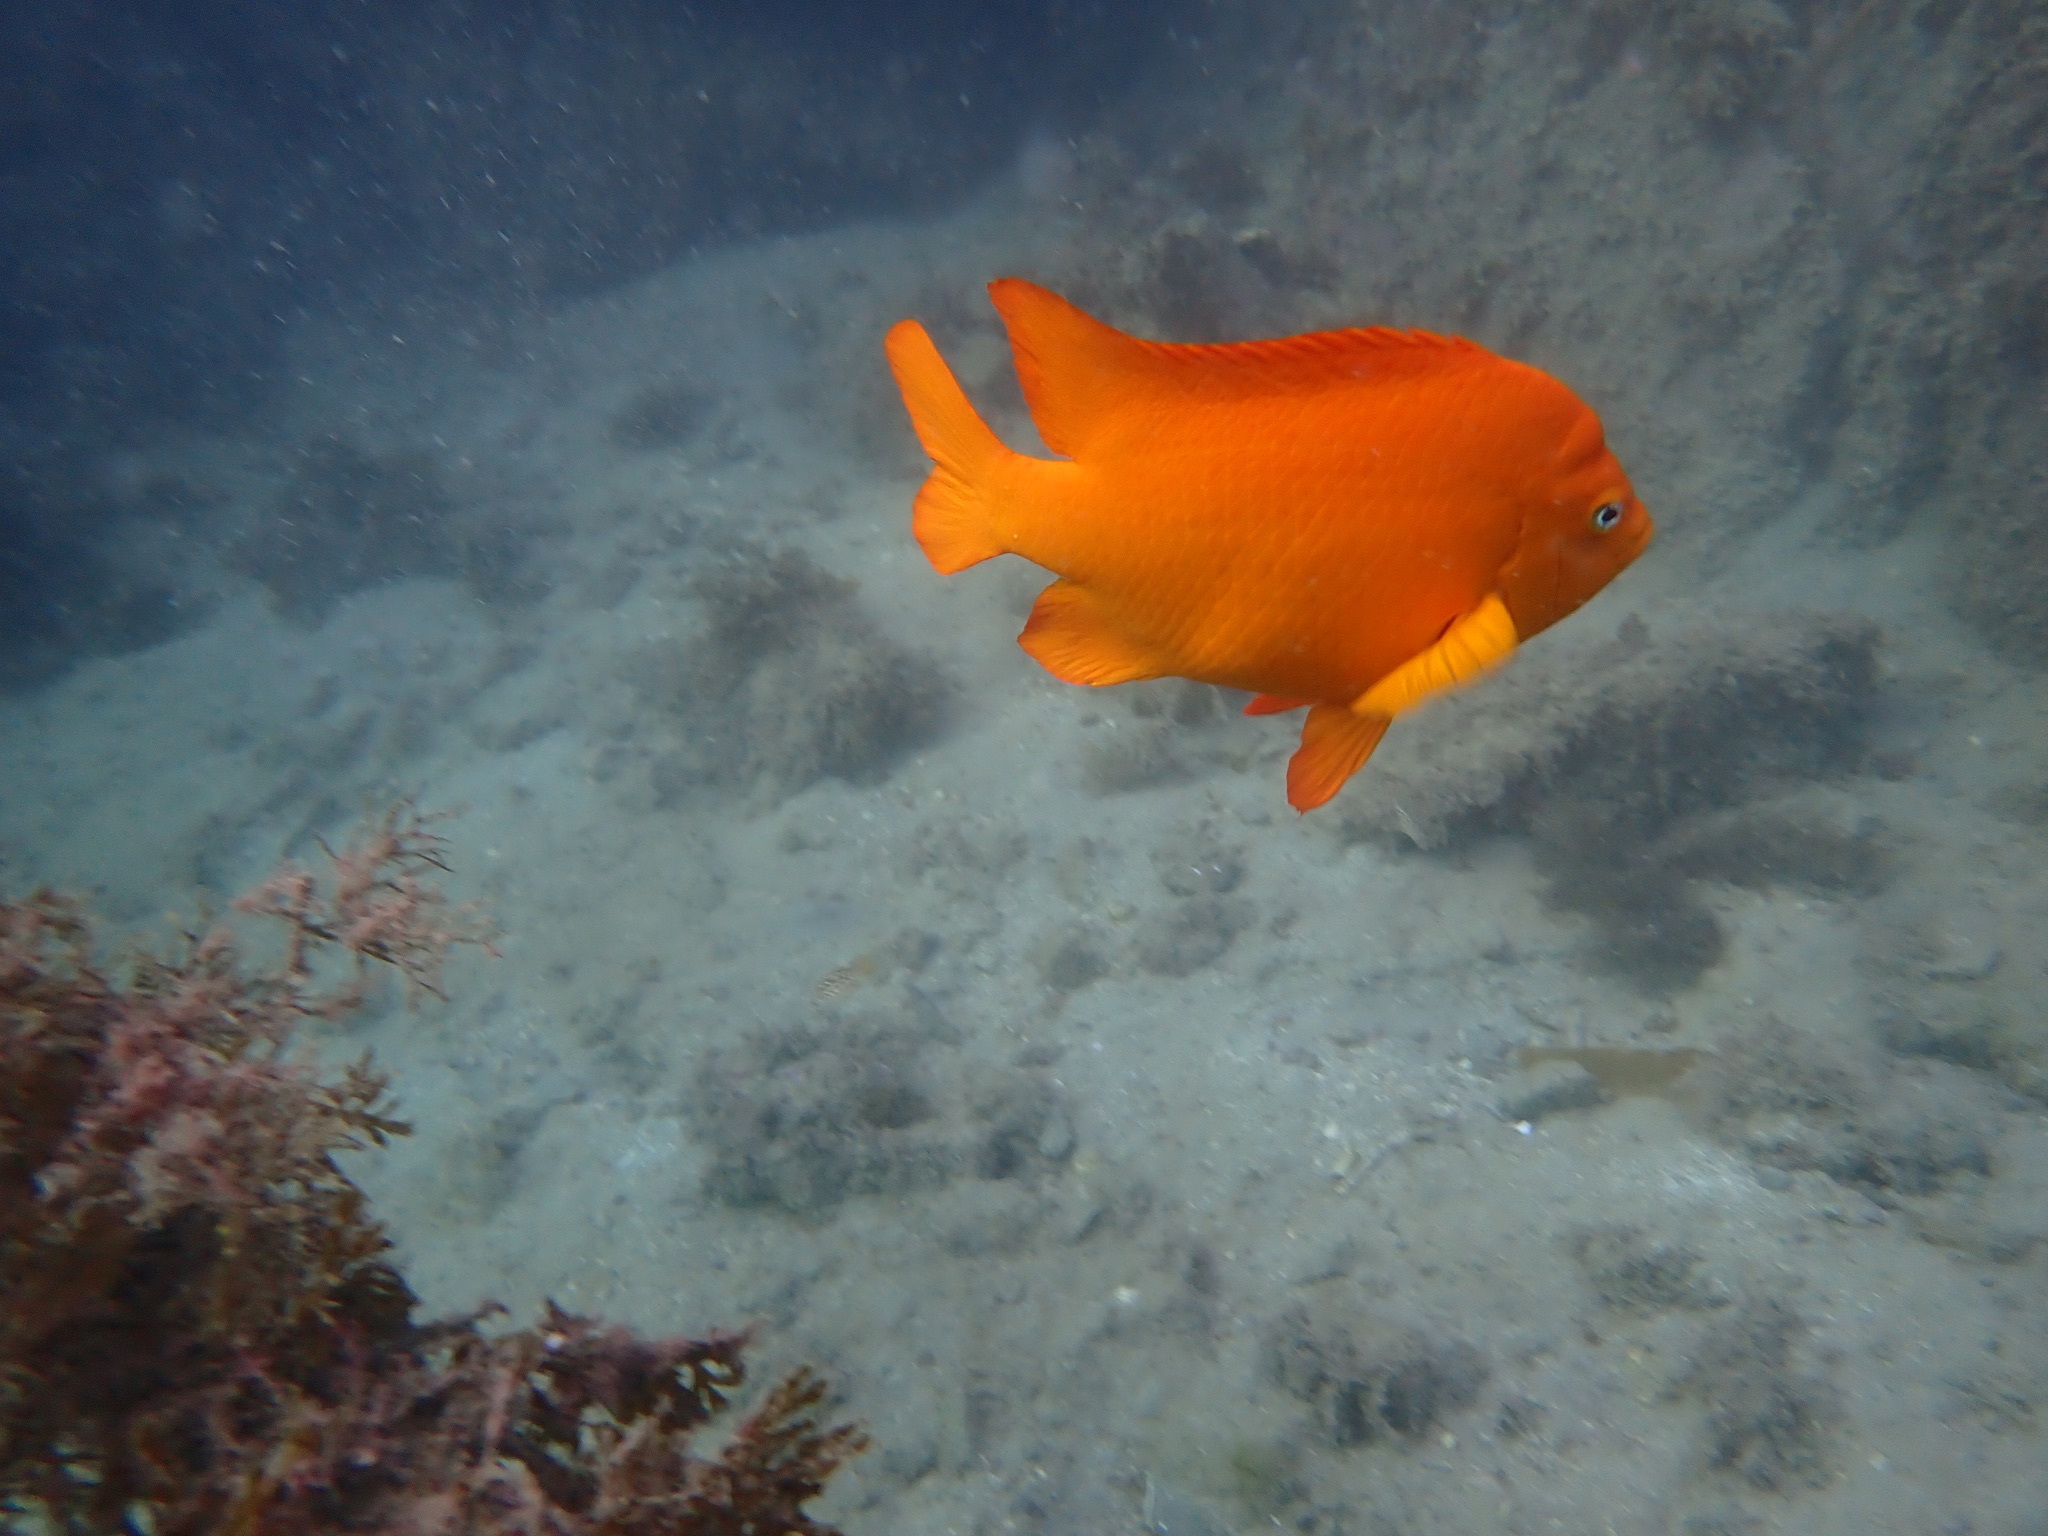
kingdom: Animalia
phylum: Chordata
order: Perciformes
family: Pomacentridae
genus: Hypsypops
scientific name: Hypsypops rubicundus
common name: Garibaldi
